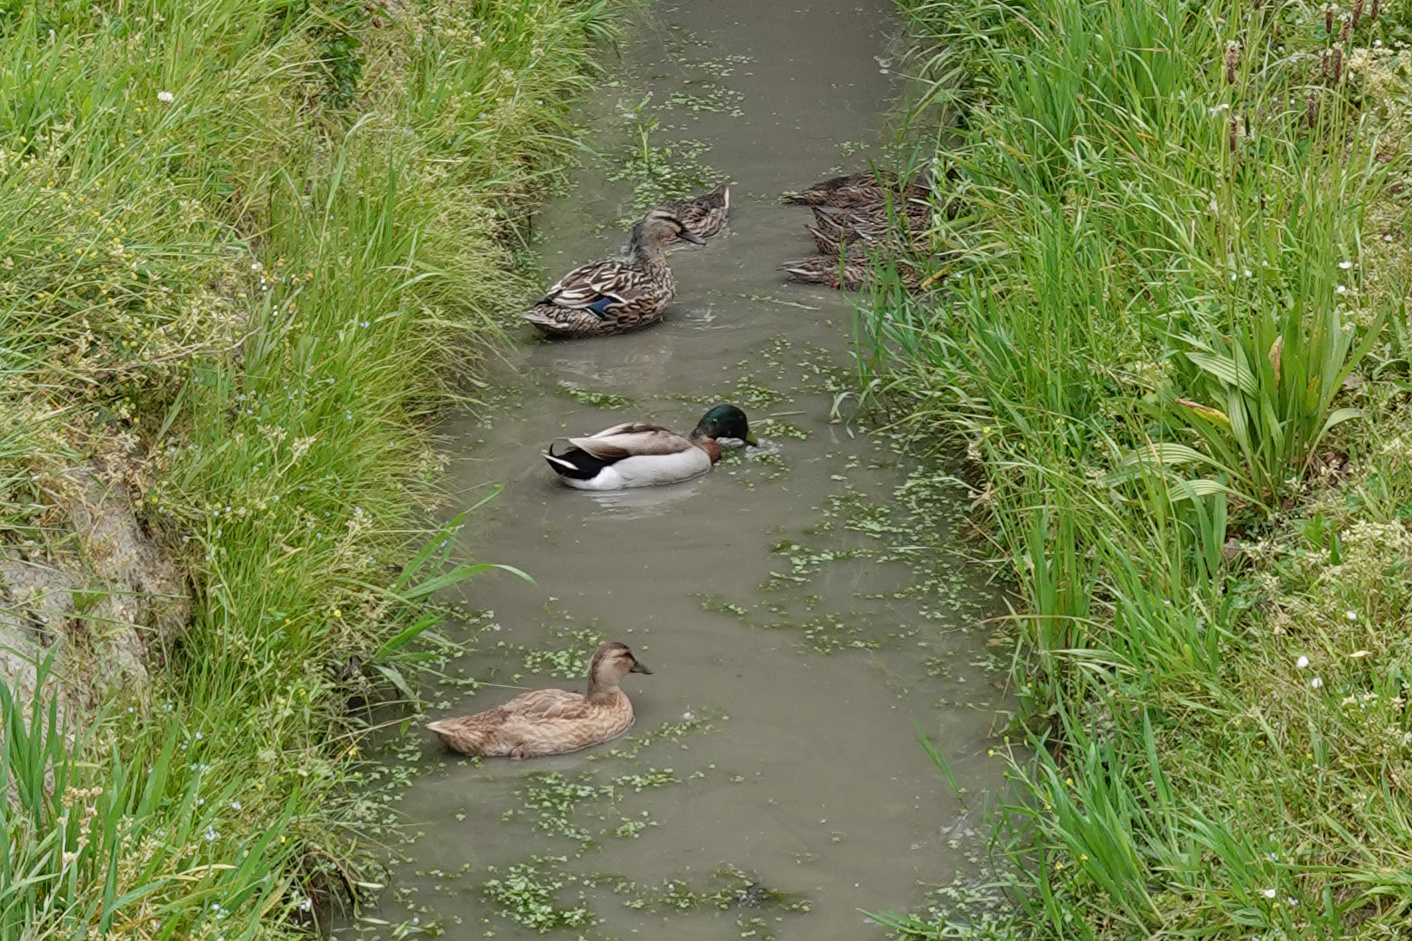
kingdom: Animalia
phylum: Chordata
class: Aves
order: Anseriformes
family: Anatidae
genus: Anas
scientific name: Anas
